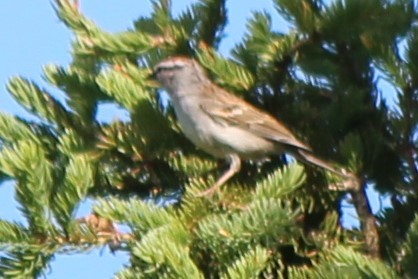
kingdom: Animalia
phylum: Chordata
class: Aves
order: Passeriformes
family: Passerellidae
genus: Spizella
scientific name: Spizella passerina
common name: Chipping sparrow
